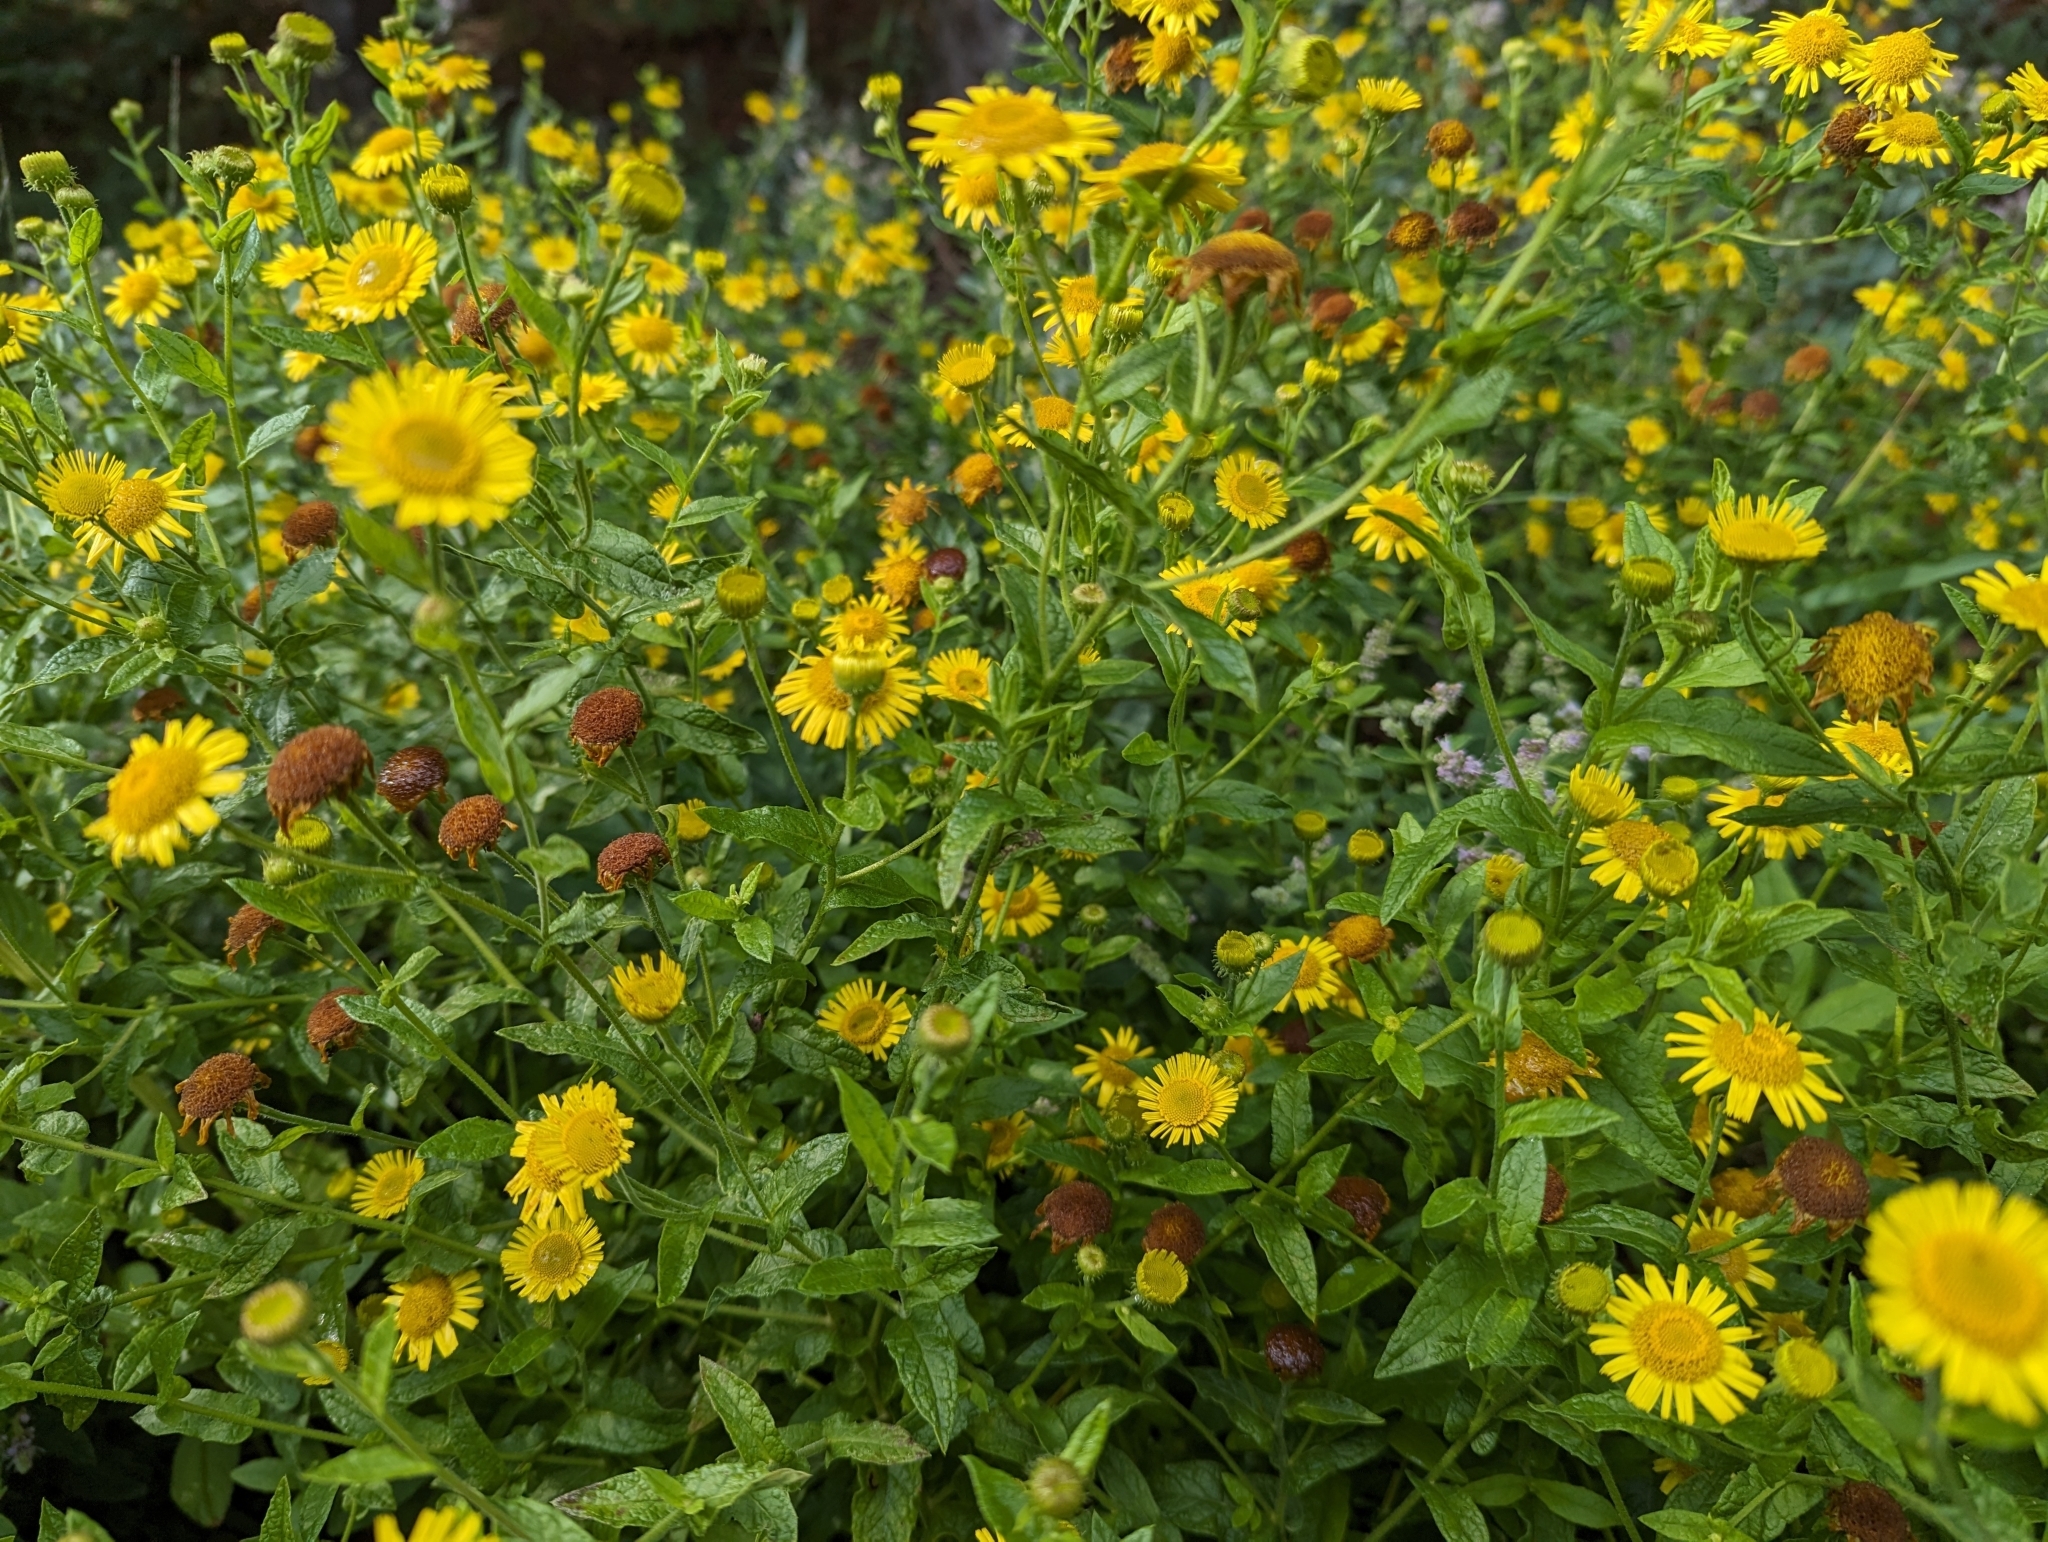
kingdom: Plantae
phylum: Tracheophyta
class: Magnoliopsida
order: Asterales
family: Asteraceae
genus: Pulicaria
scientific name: Pulicaria dysenterica
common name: Common fleabane
